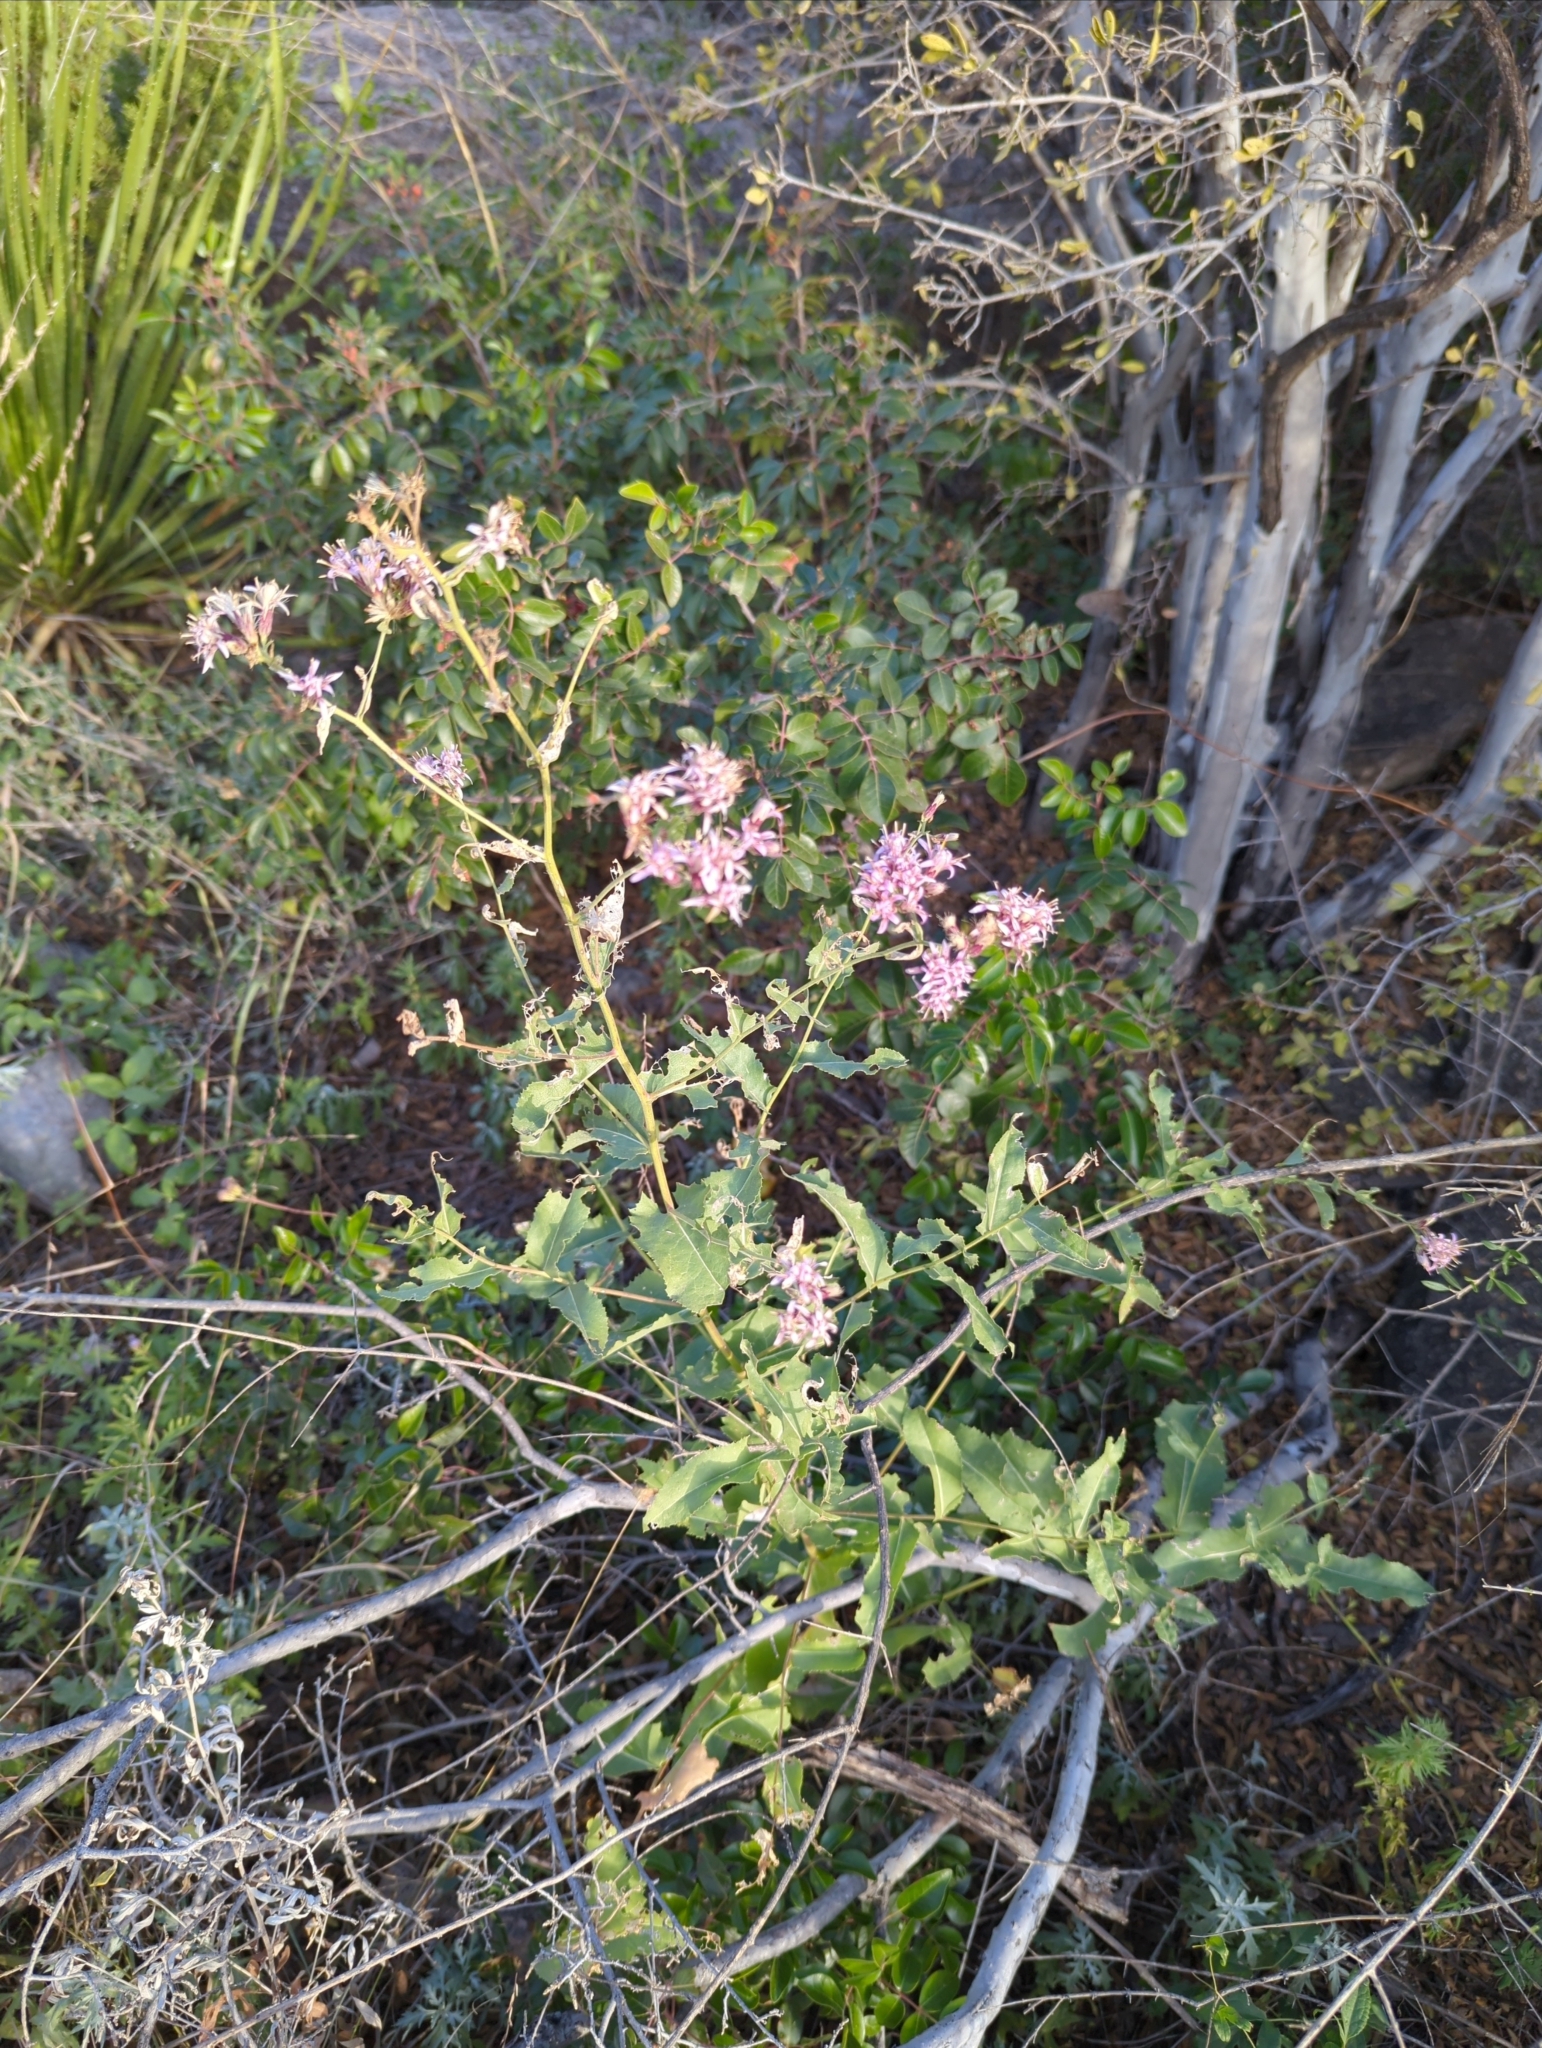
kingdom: Plantae
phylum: Tracheophyta
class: Magnoliopsida
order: Asterales
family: Asteraceae
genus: Acourtia
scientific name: Acourtia wrightii
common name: Brownfoot
